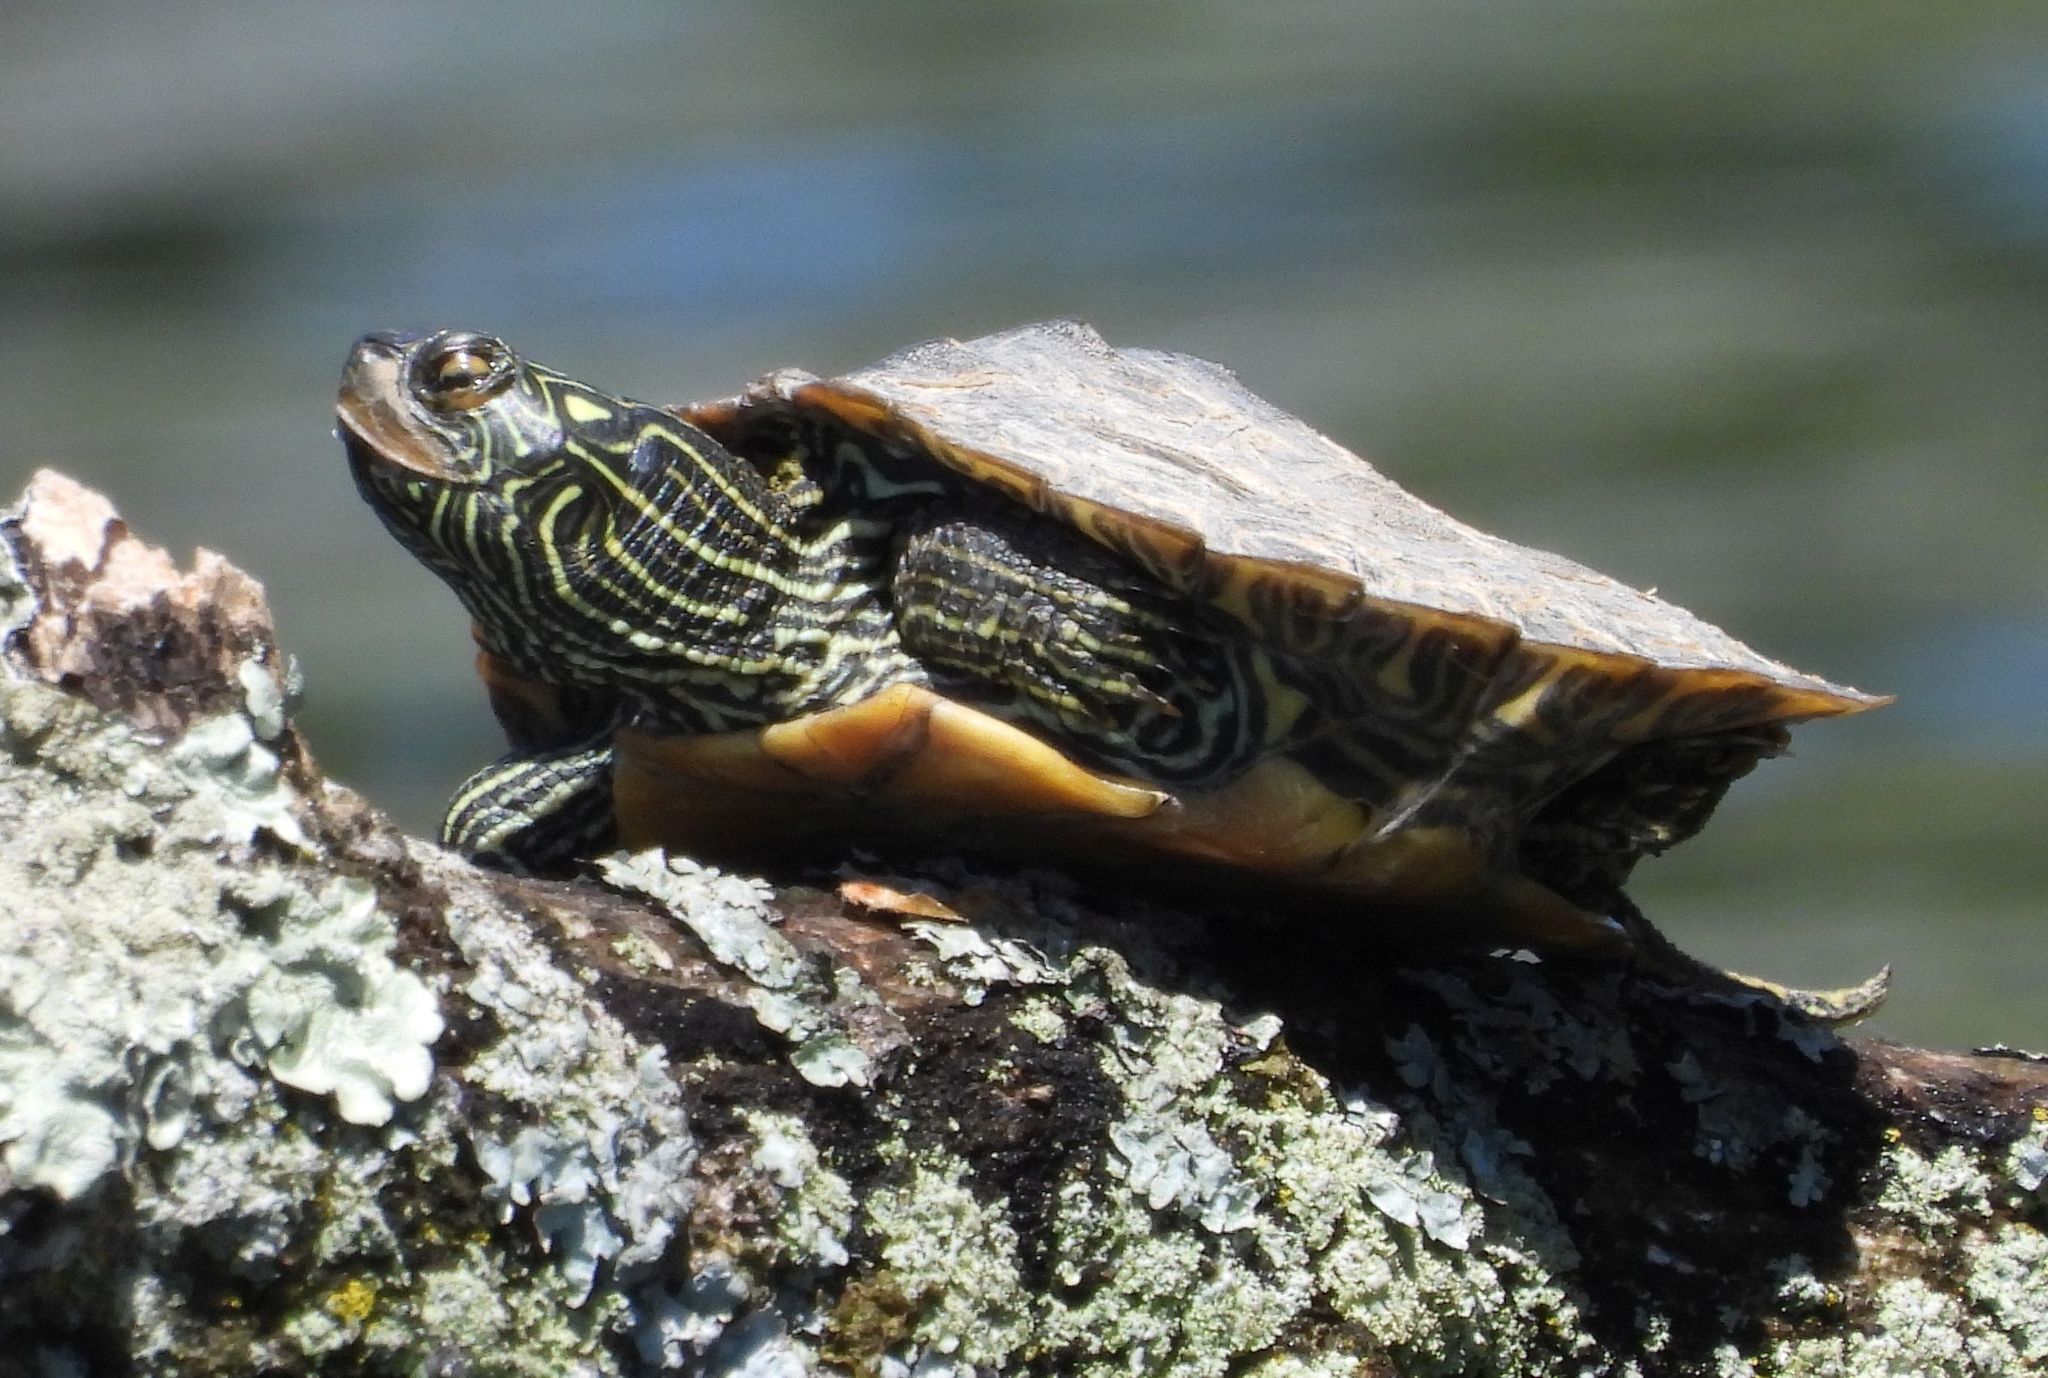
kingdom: Animalia
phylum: Chordata
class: Testudines
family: Emydidae
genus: Graptemys
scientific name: Graptemys geographica
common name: Common map turtle
